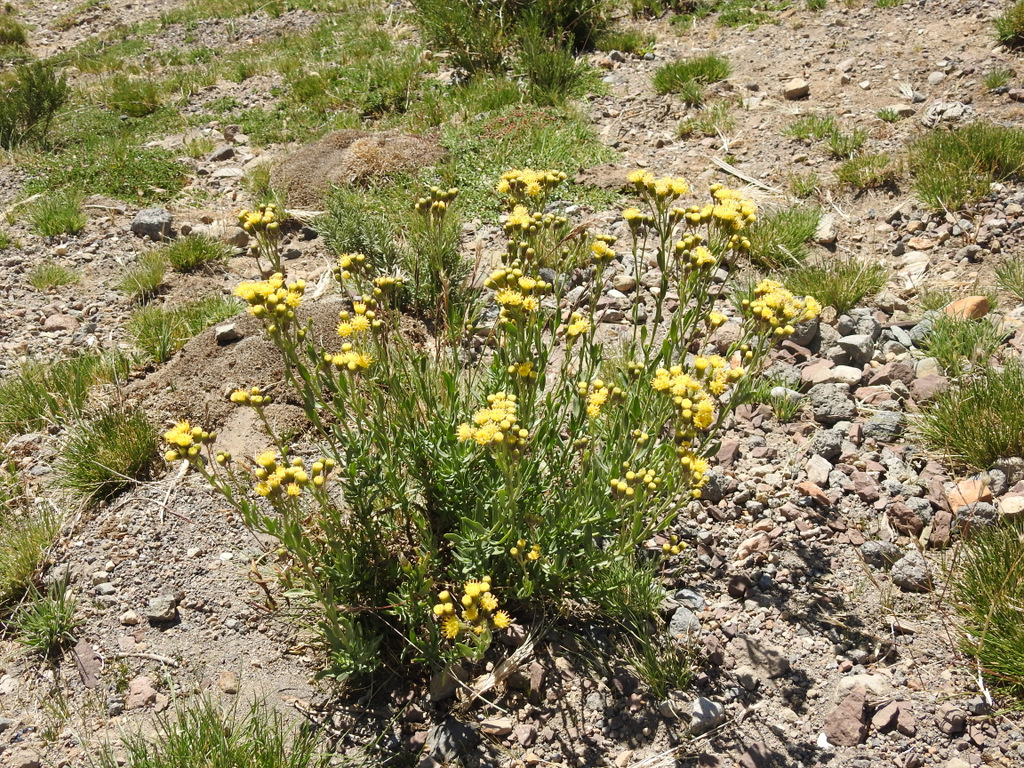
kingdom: Plantae
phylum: Tracheophyta
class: Magnoliopsida
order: Asterales
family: Asteraceae
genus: Senecio
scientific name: Senecio covasii
